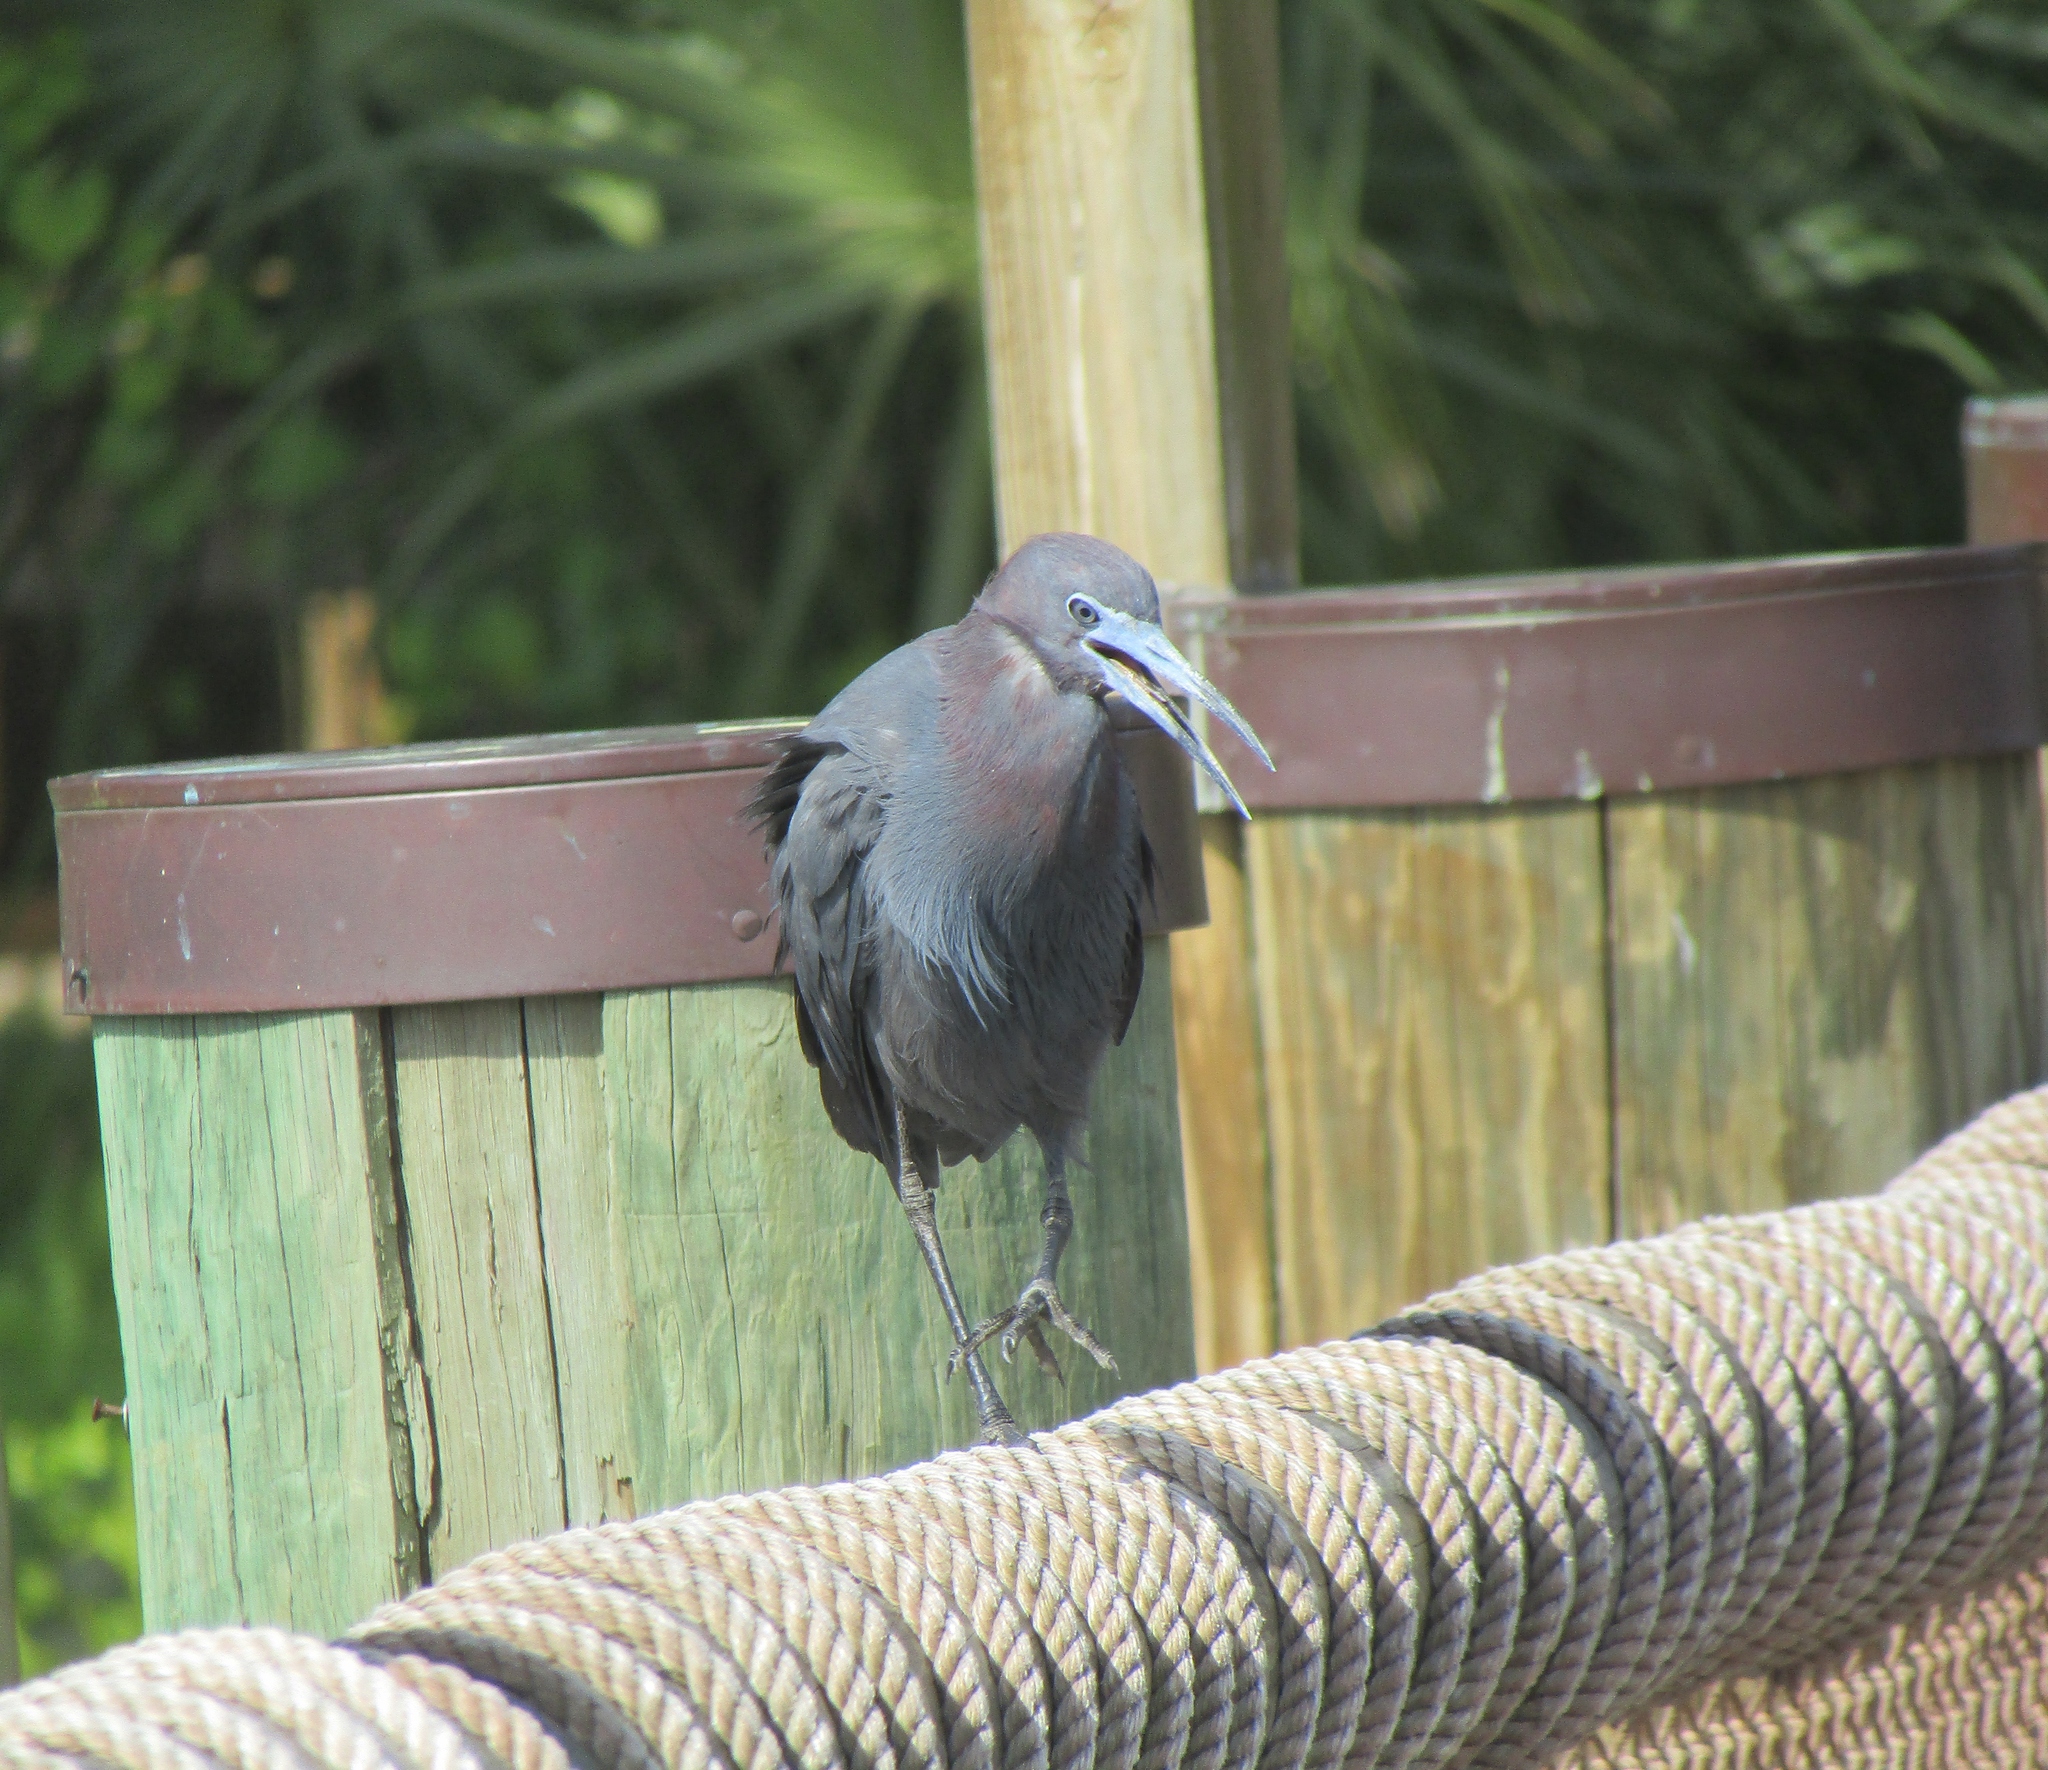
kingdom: Animalia
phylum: Chordata
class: Aves
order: Pelecaniformes
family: Ardeidae
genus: Egretta
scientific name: Egretta caerulea
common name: Little blue heron
